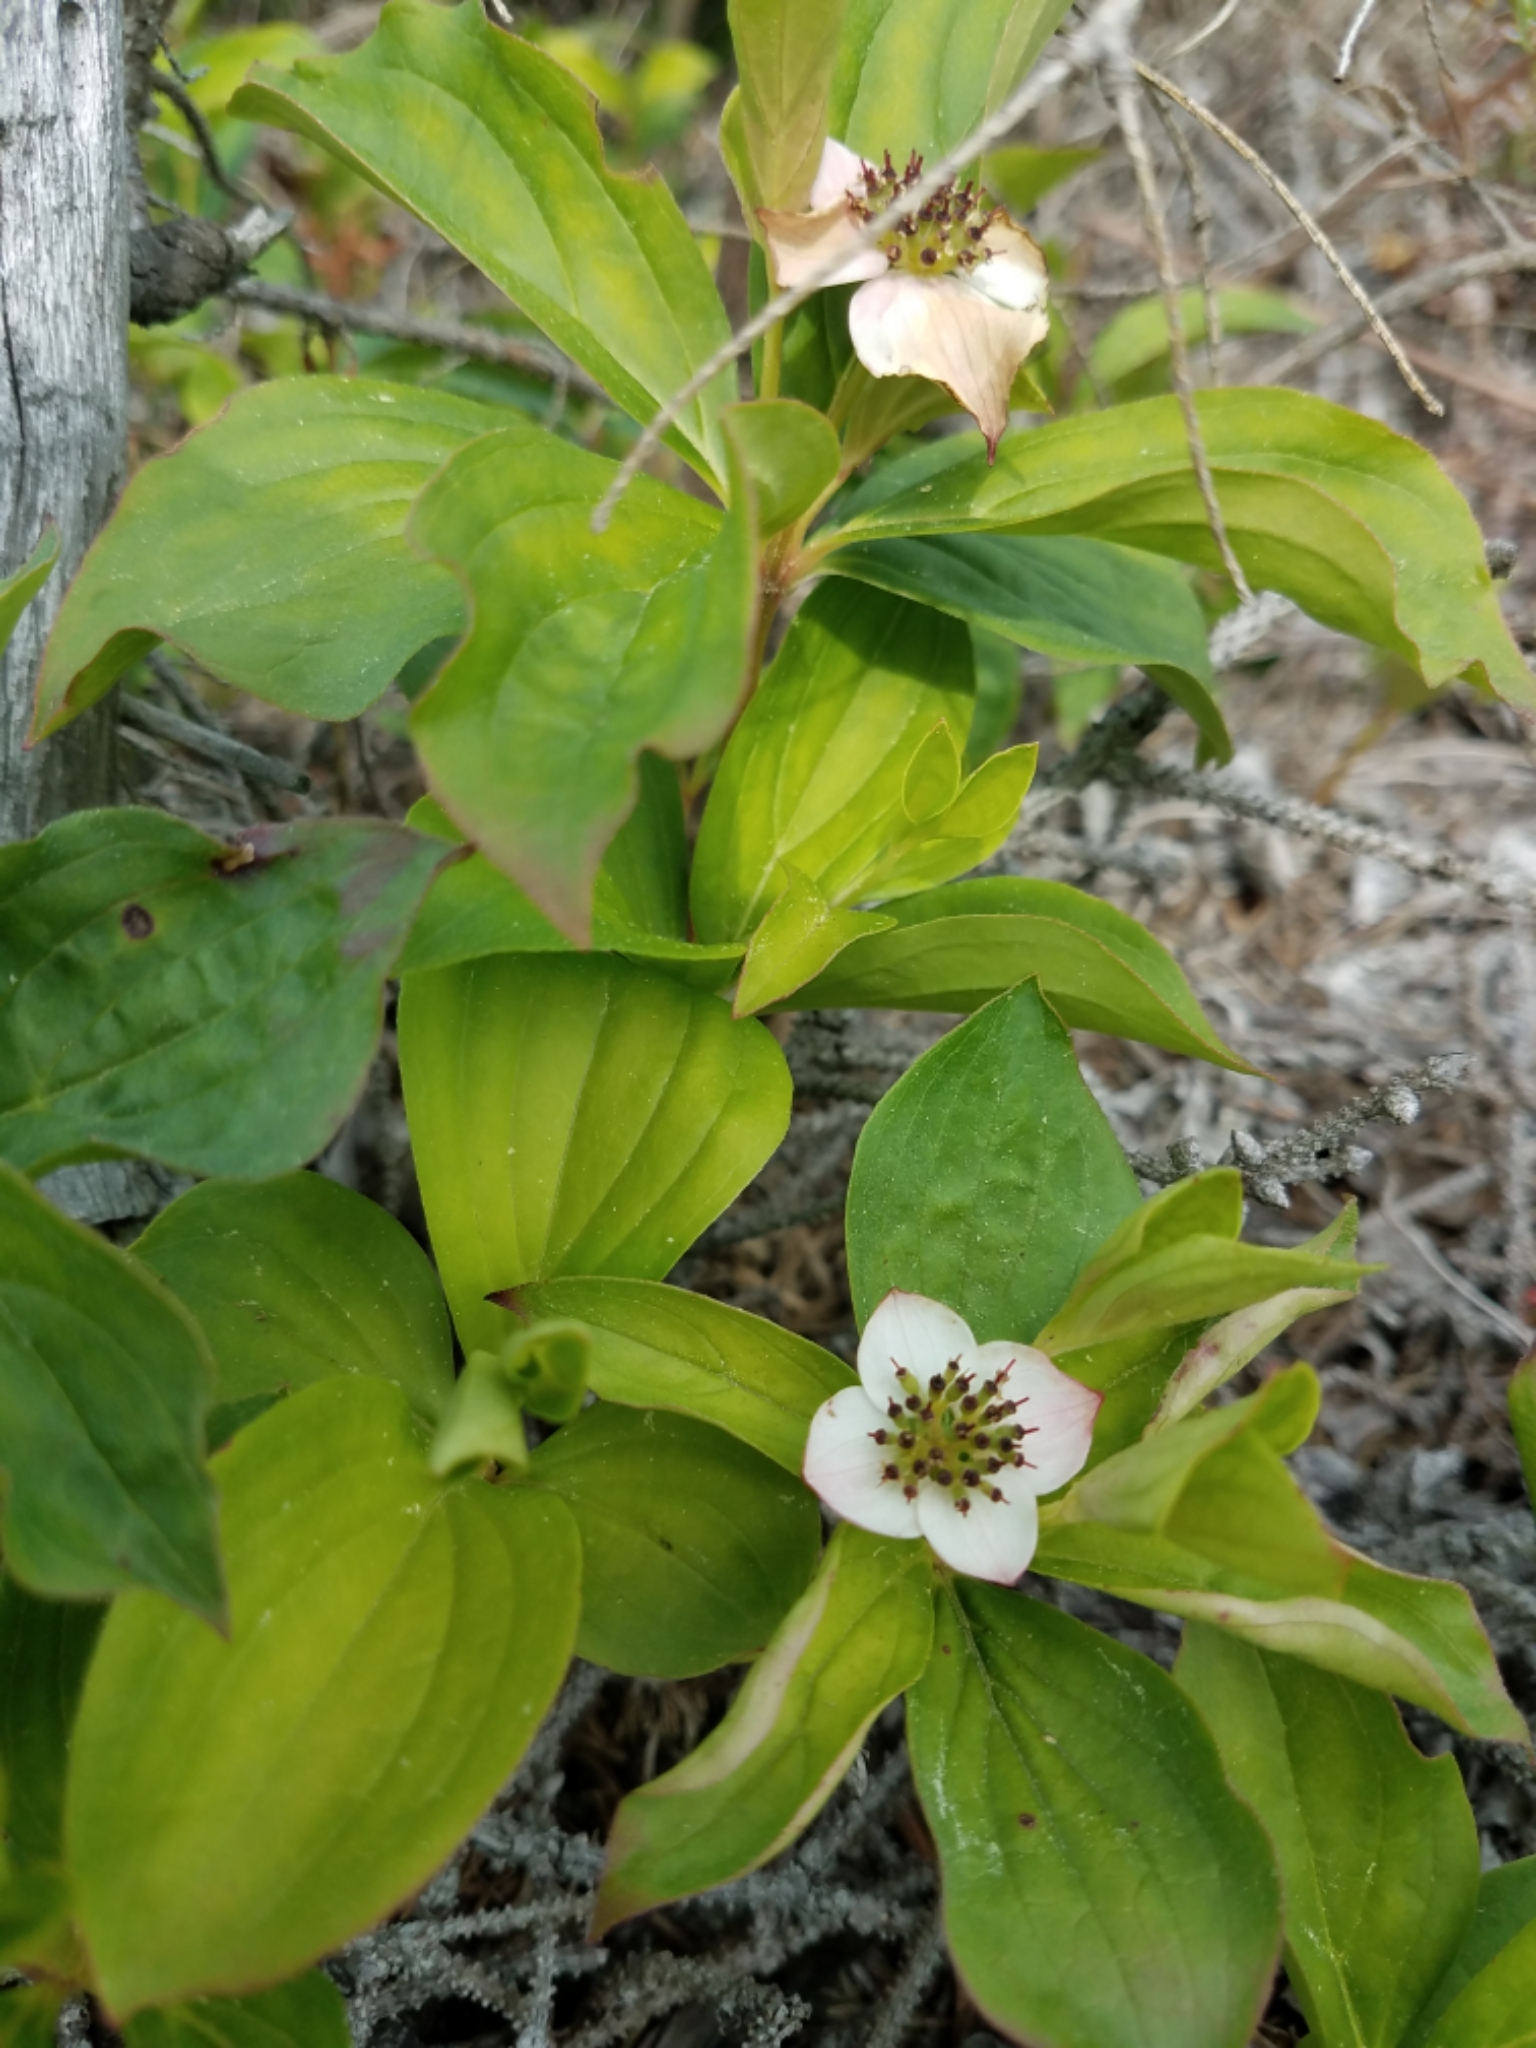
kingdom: Plantae
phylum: Tracheophyta
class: Magnoliopsida
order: Cornales
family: Cornaceae
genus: Cornus
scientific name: Cornus canadensis
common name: Creeping dogwood
